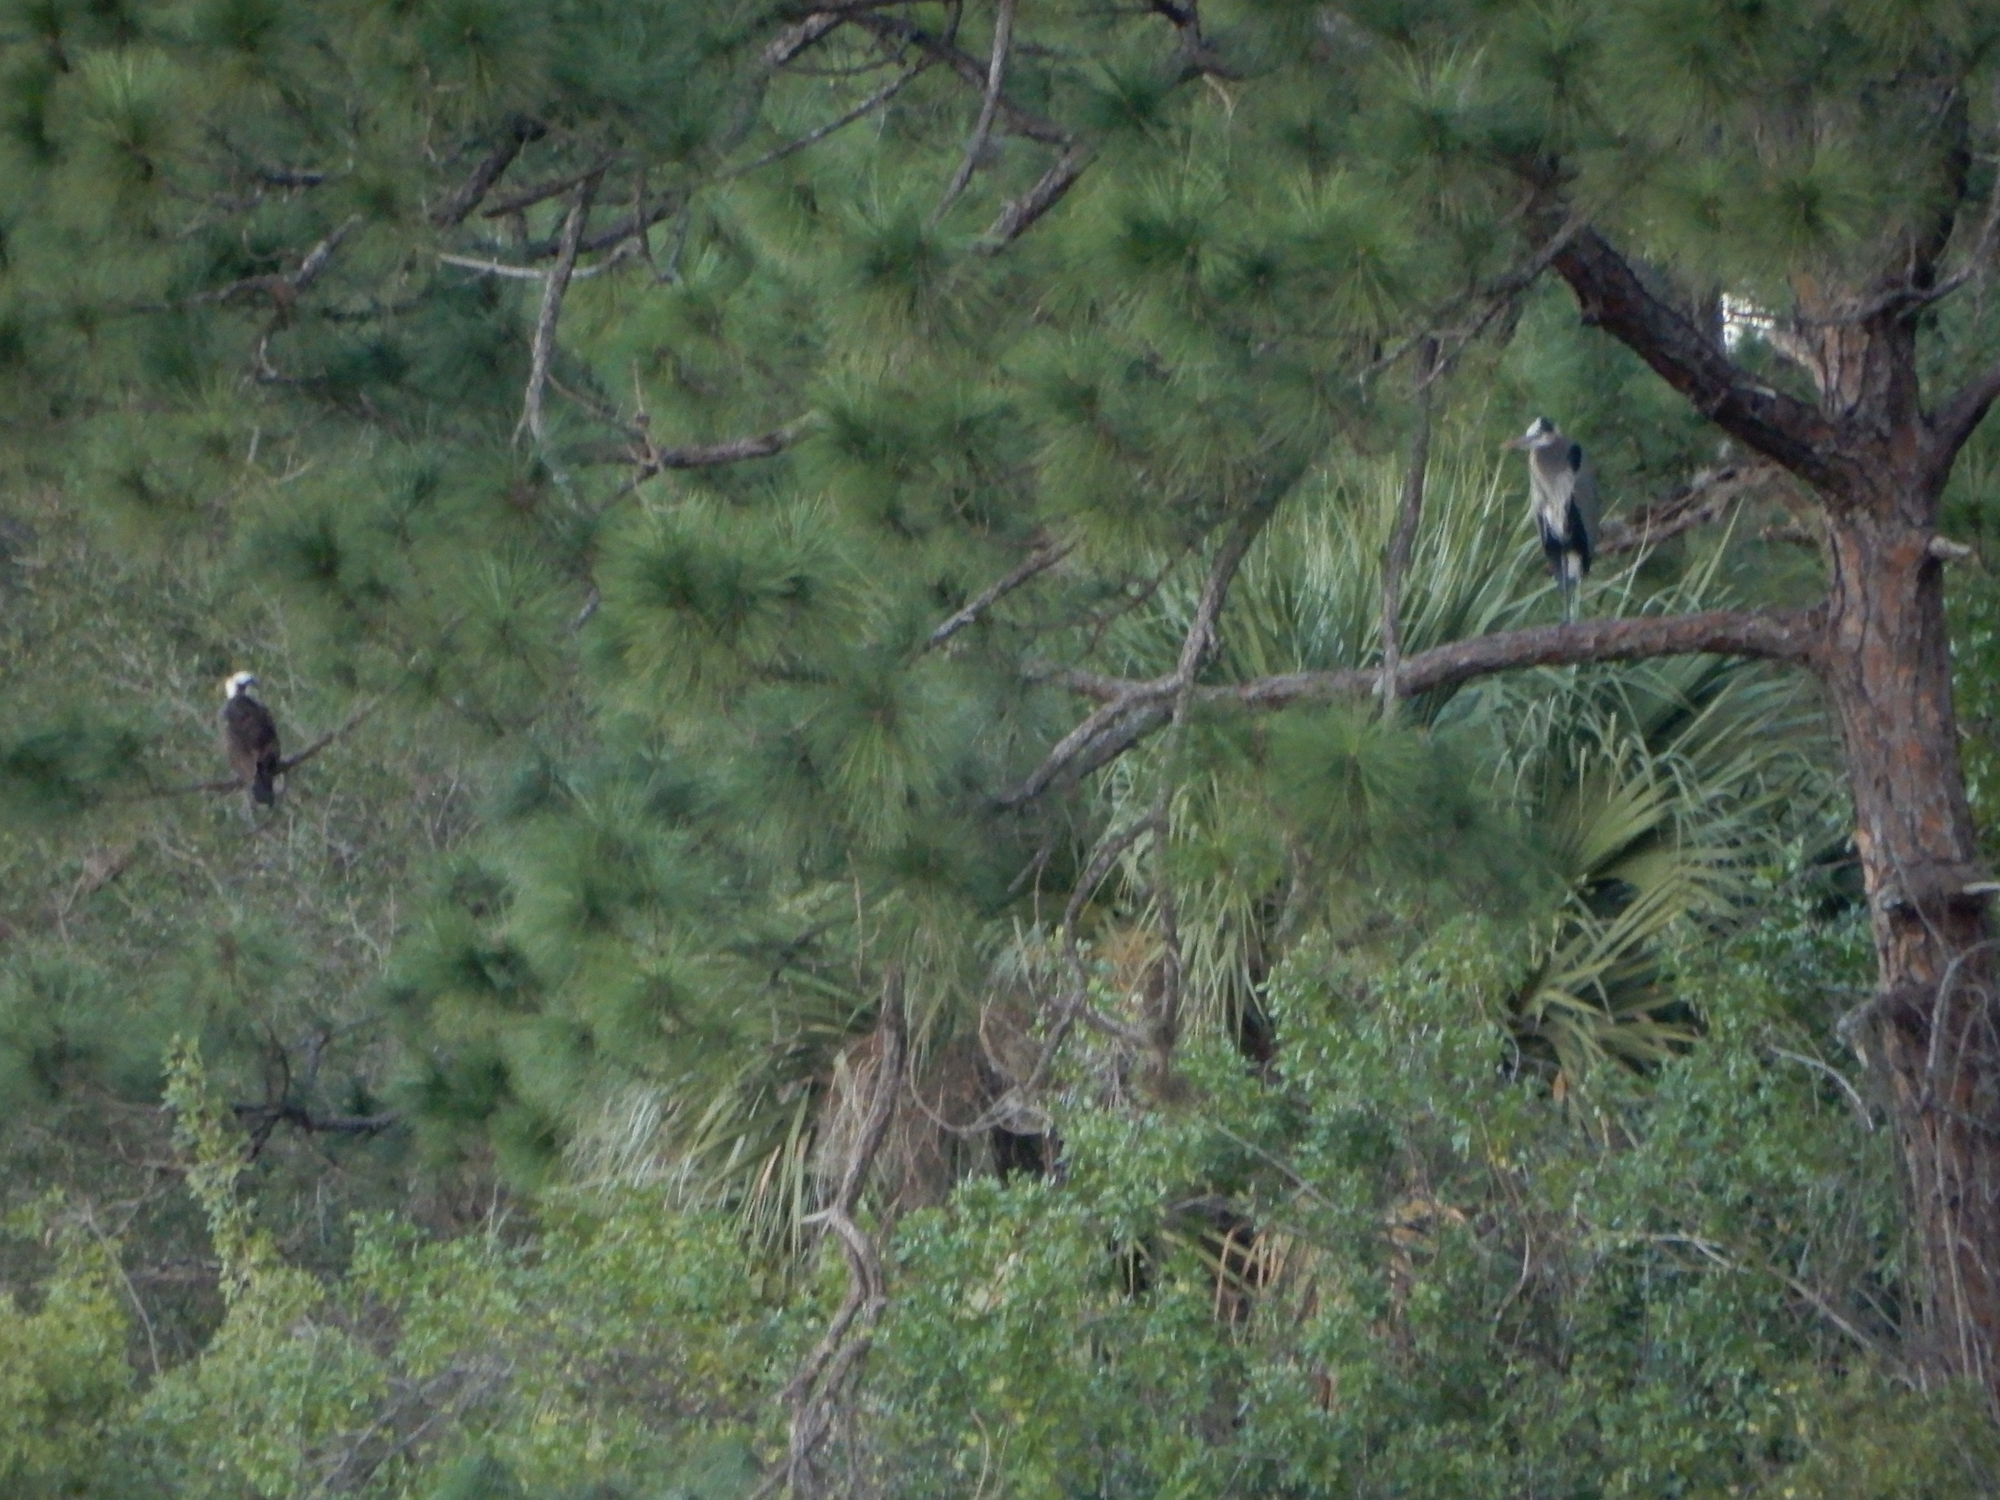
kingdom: Animalia
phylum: Chordata
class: Aves
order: Accipitriformes
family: Pandionidae
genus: Pandion
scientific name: Pandion haliaetus
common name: Osprey
